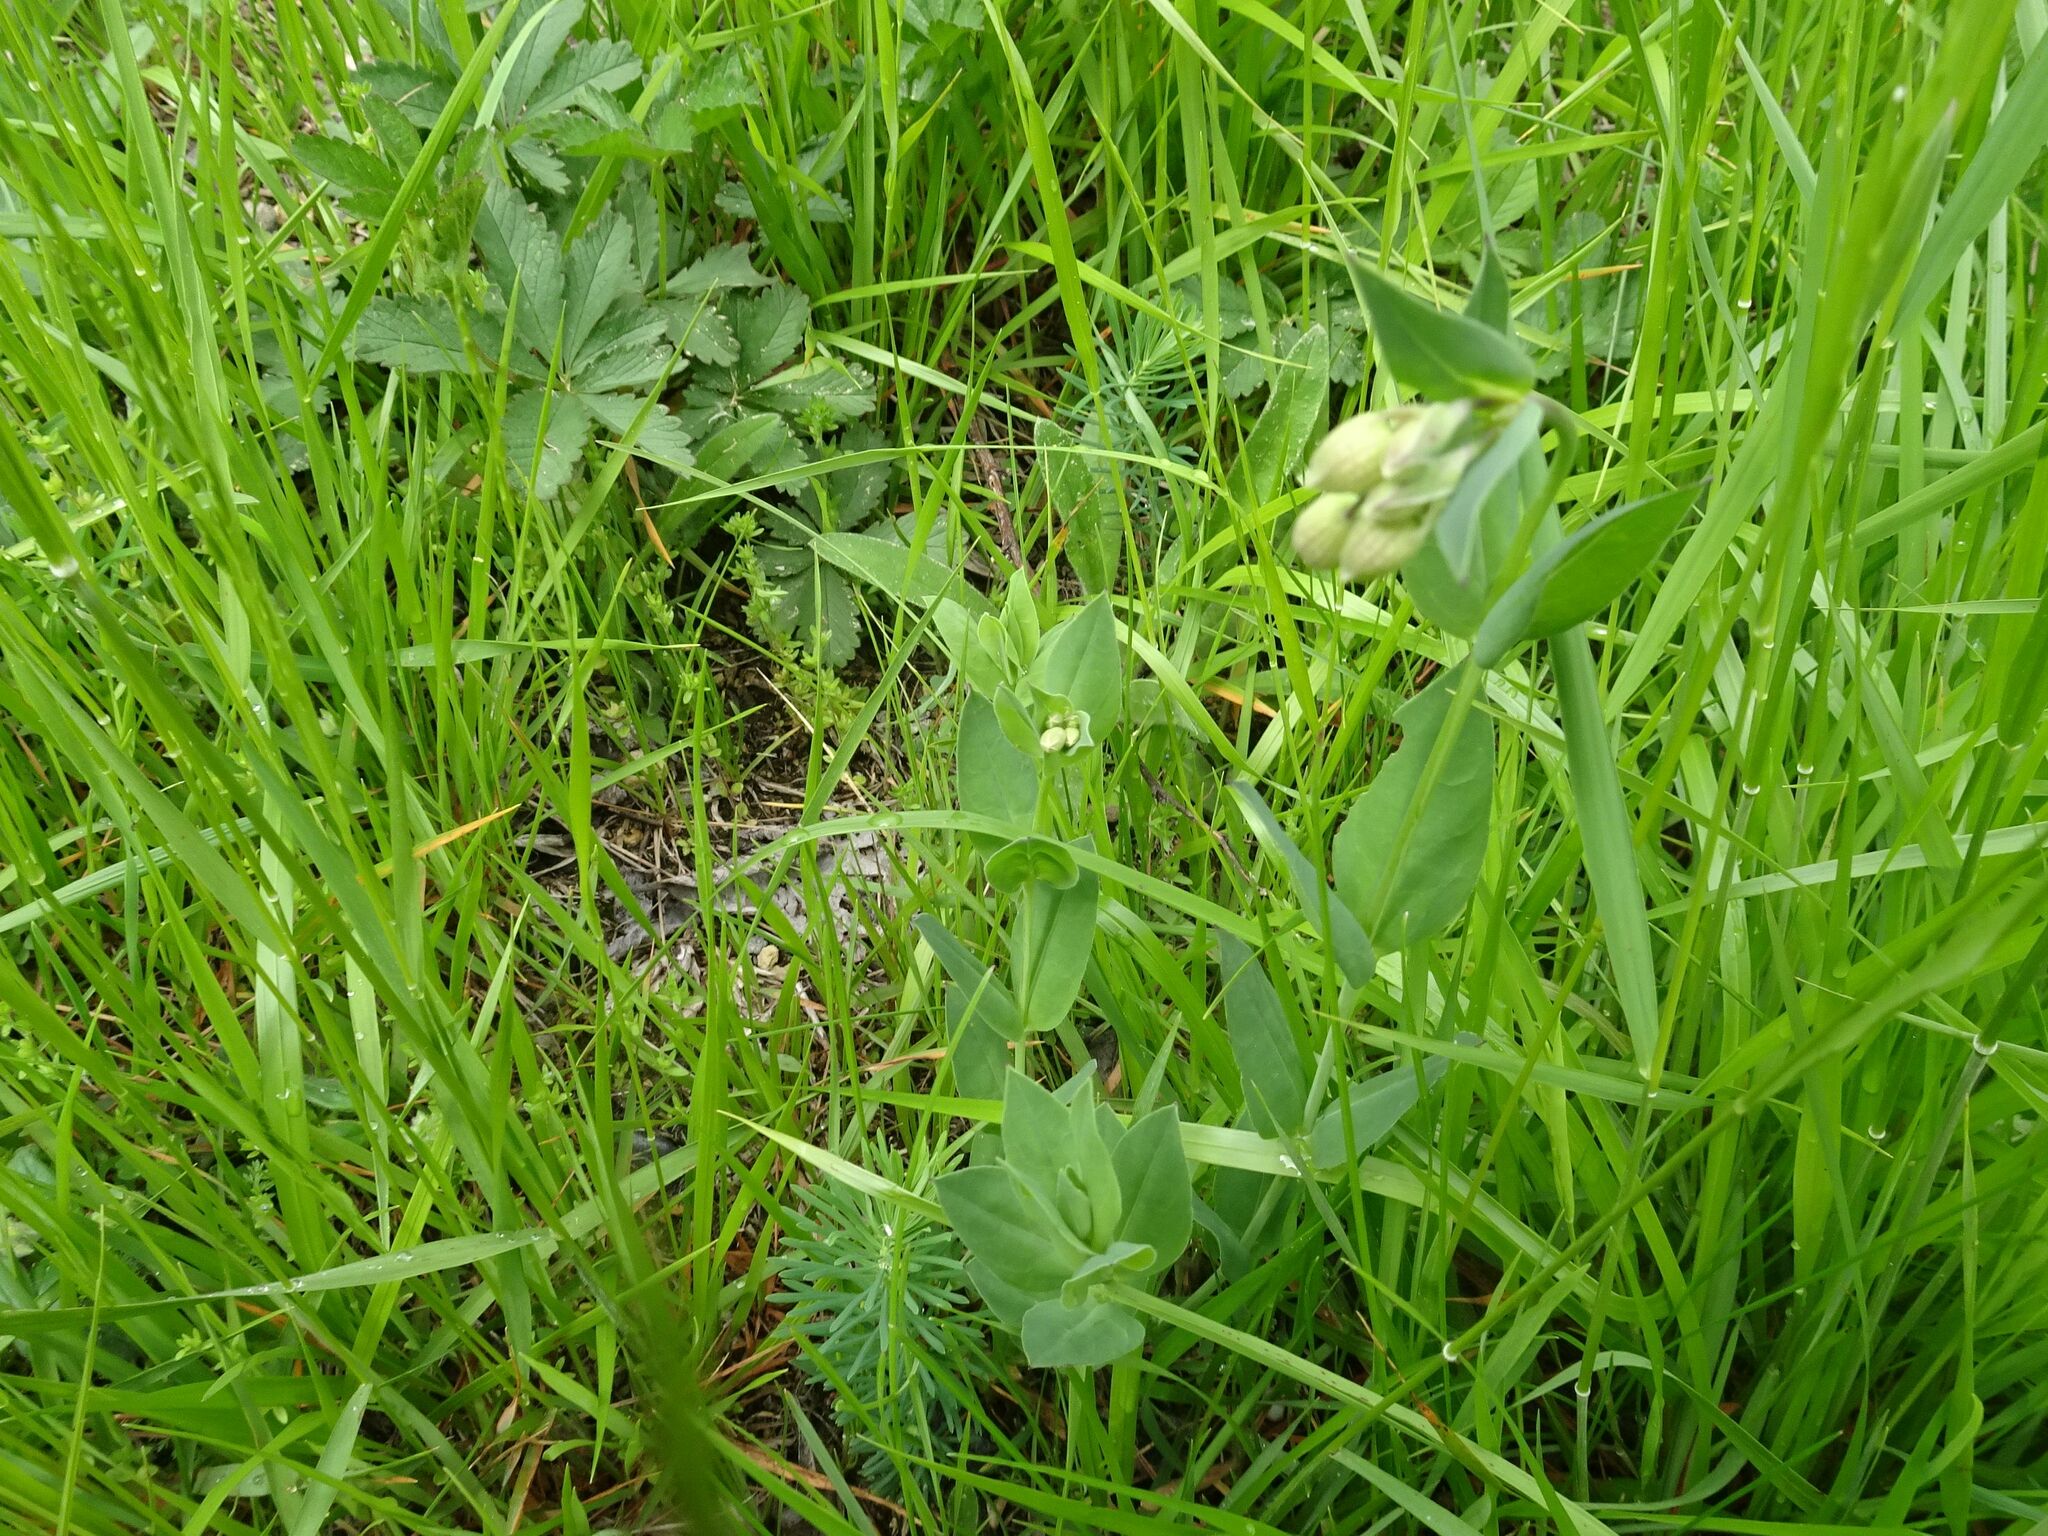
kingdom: Plantae
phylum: Tracheophyta
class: Magnoliopsida
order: Caryophyllales
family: Caryophyllaceae
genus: Silene
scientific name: Silene vulgaris
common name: Bladder campion
